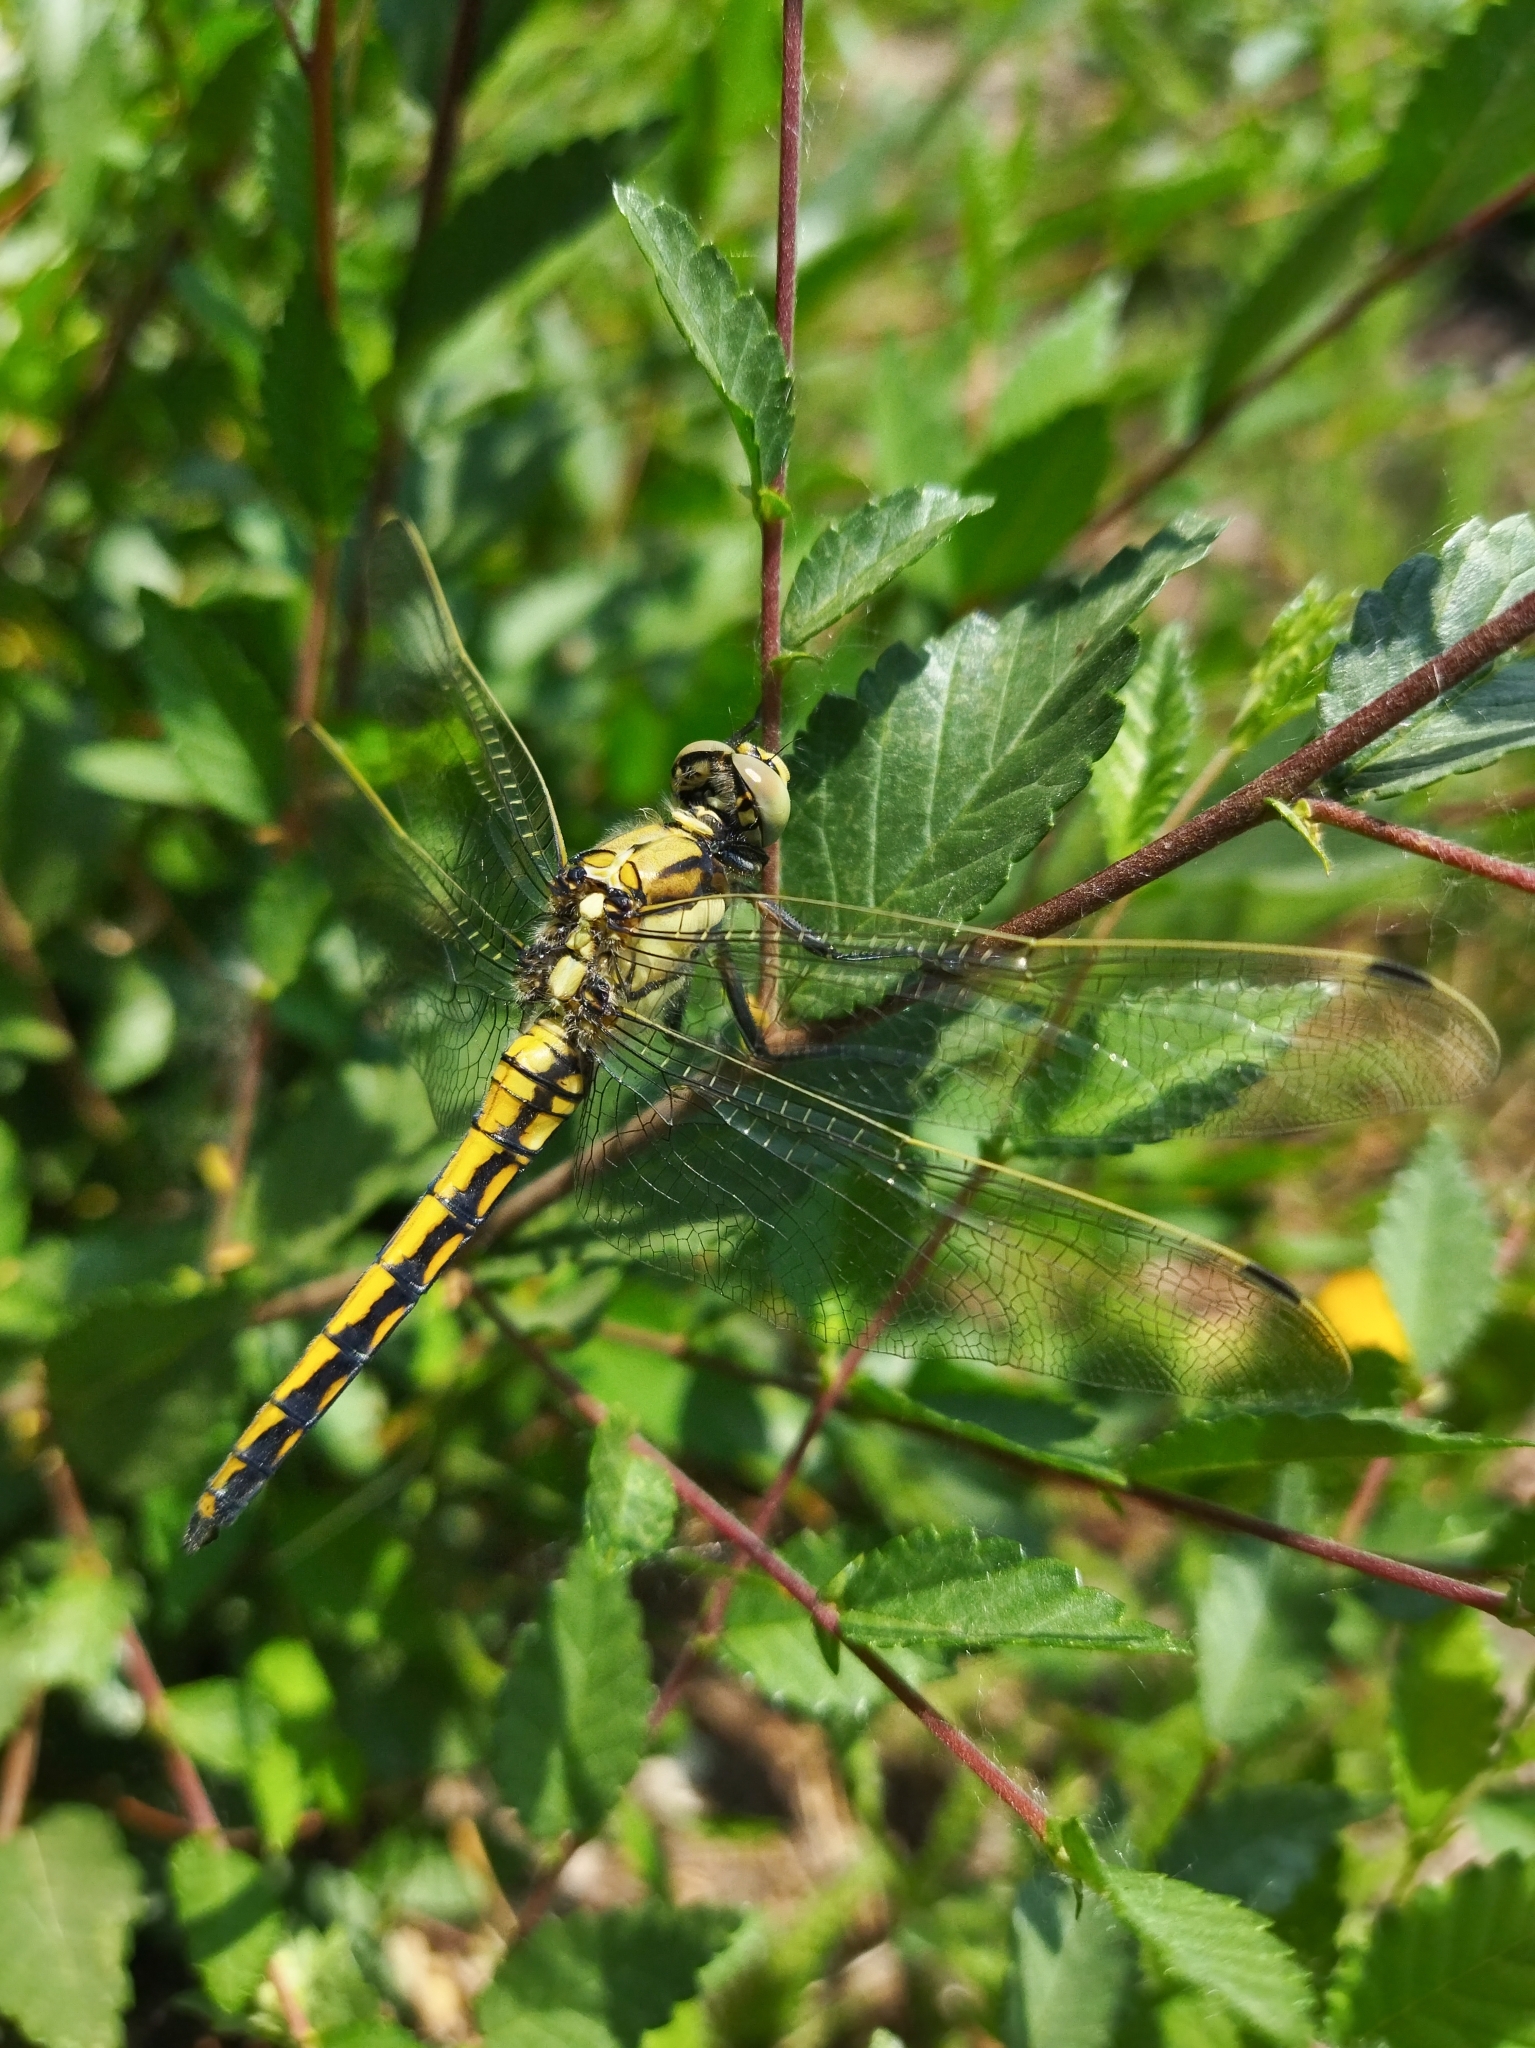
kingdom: Animalia
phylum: Arthropoda
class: Insecta
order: Odonata
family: Libellulidae
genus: Orthetrum
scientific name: Orthetrum cancellatum
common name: Black-tailed skimmer
